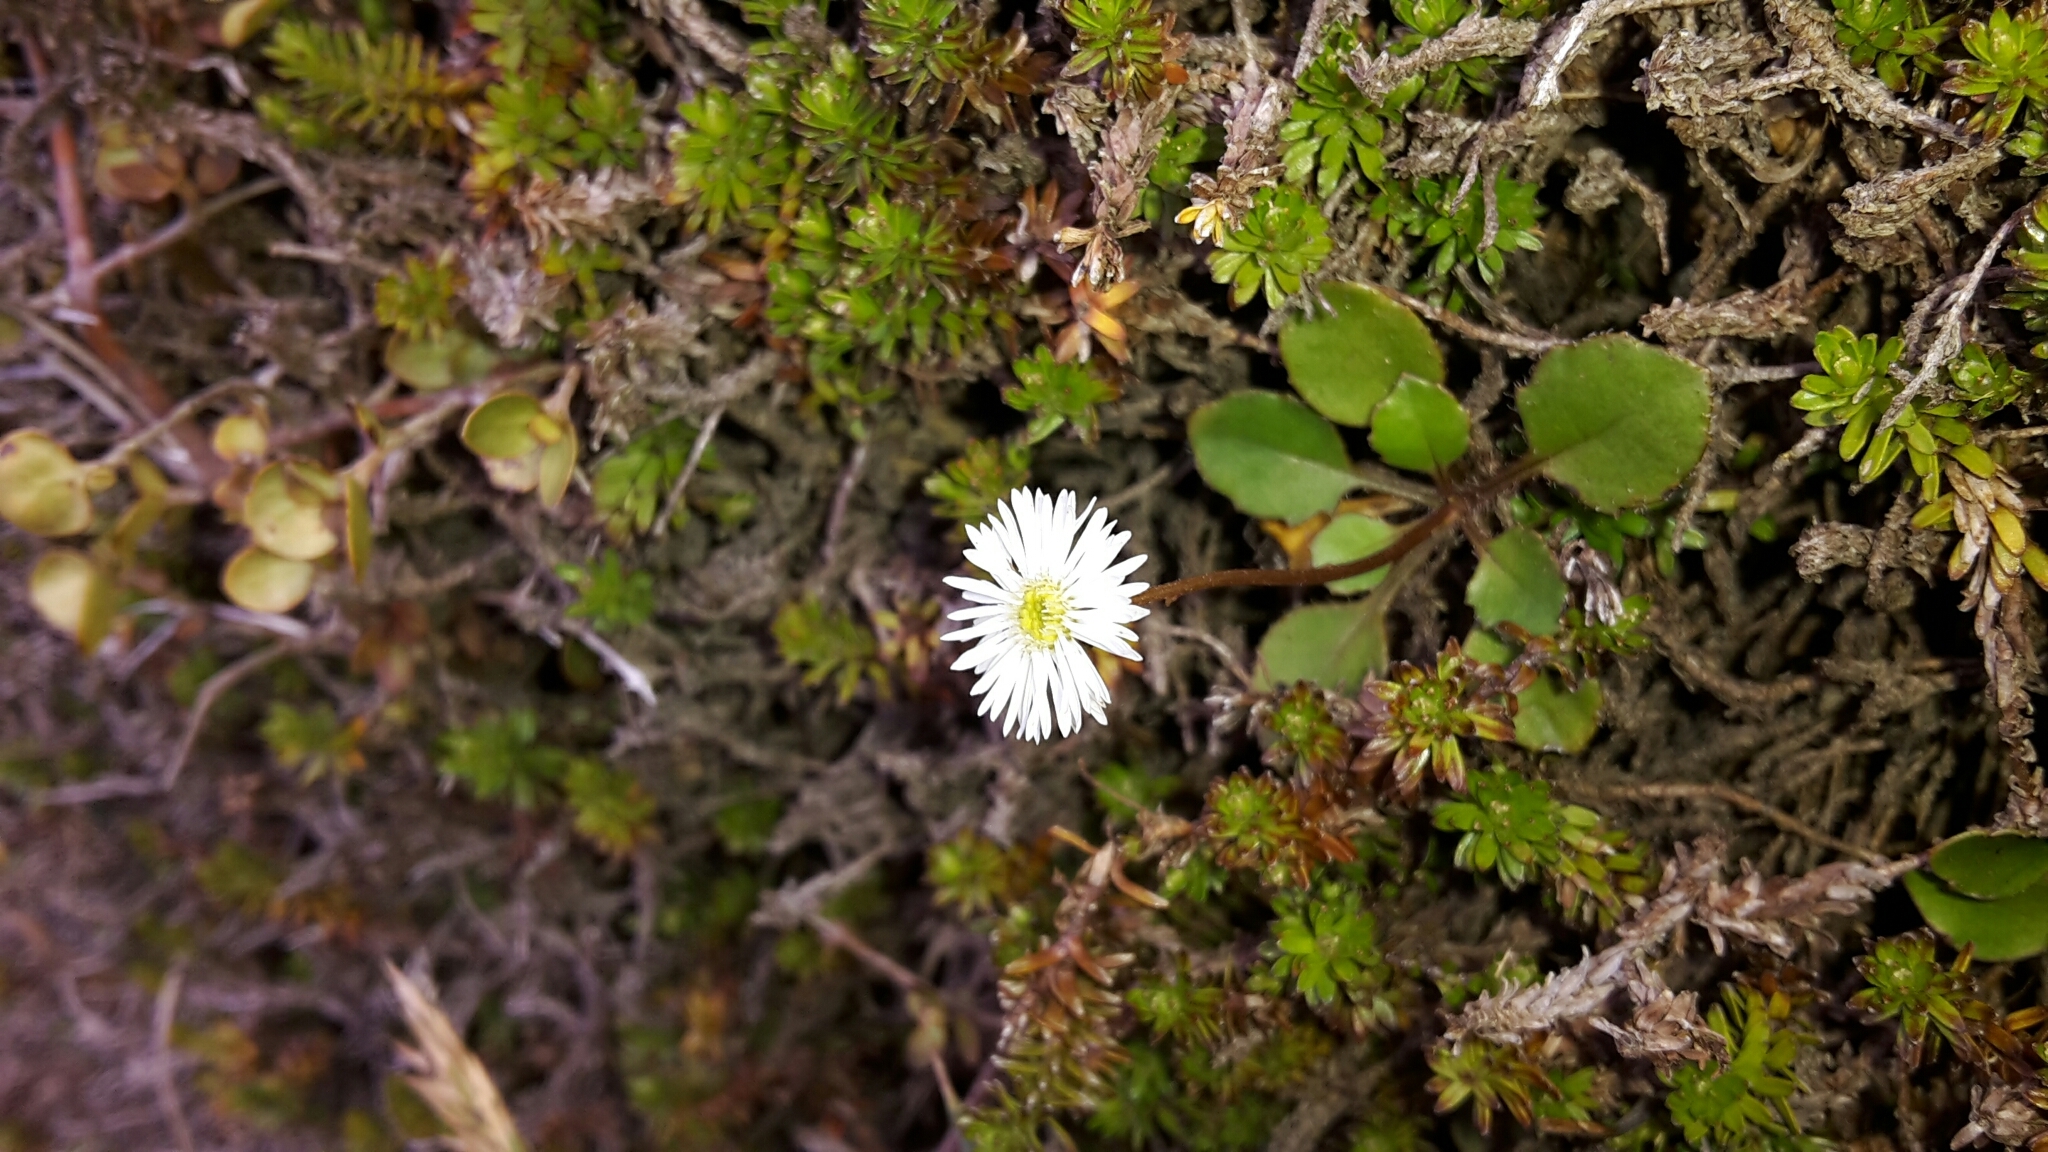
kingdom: Plantae
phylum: Tracheophyta
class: Magnoliopsida
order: Asterales
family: Asteraceae
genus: Lagenophora
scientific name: Lagenophora pumila
